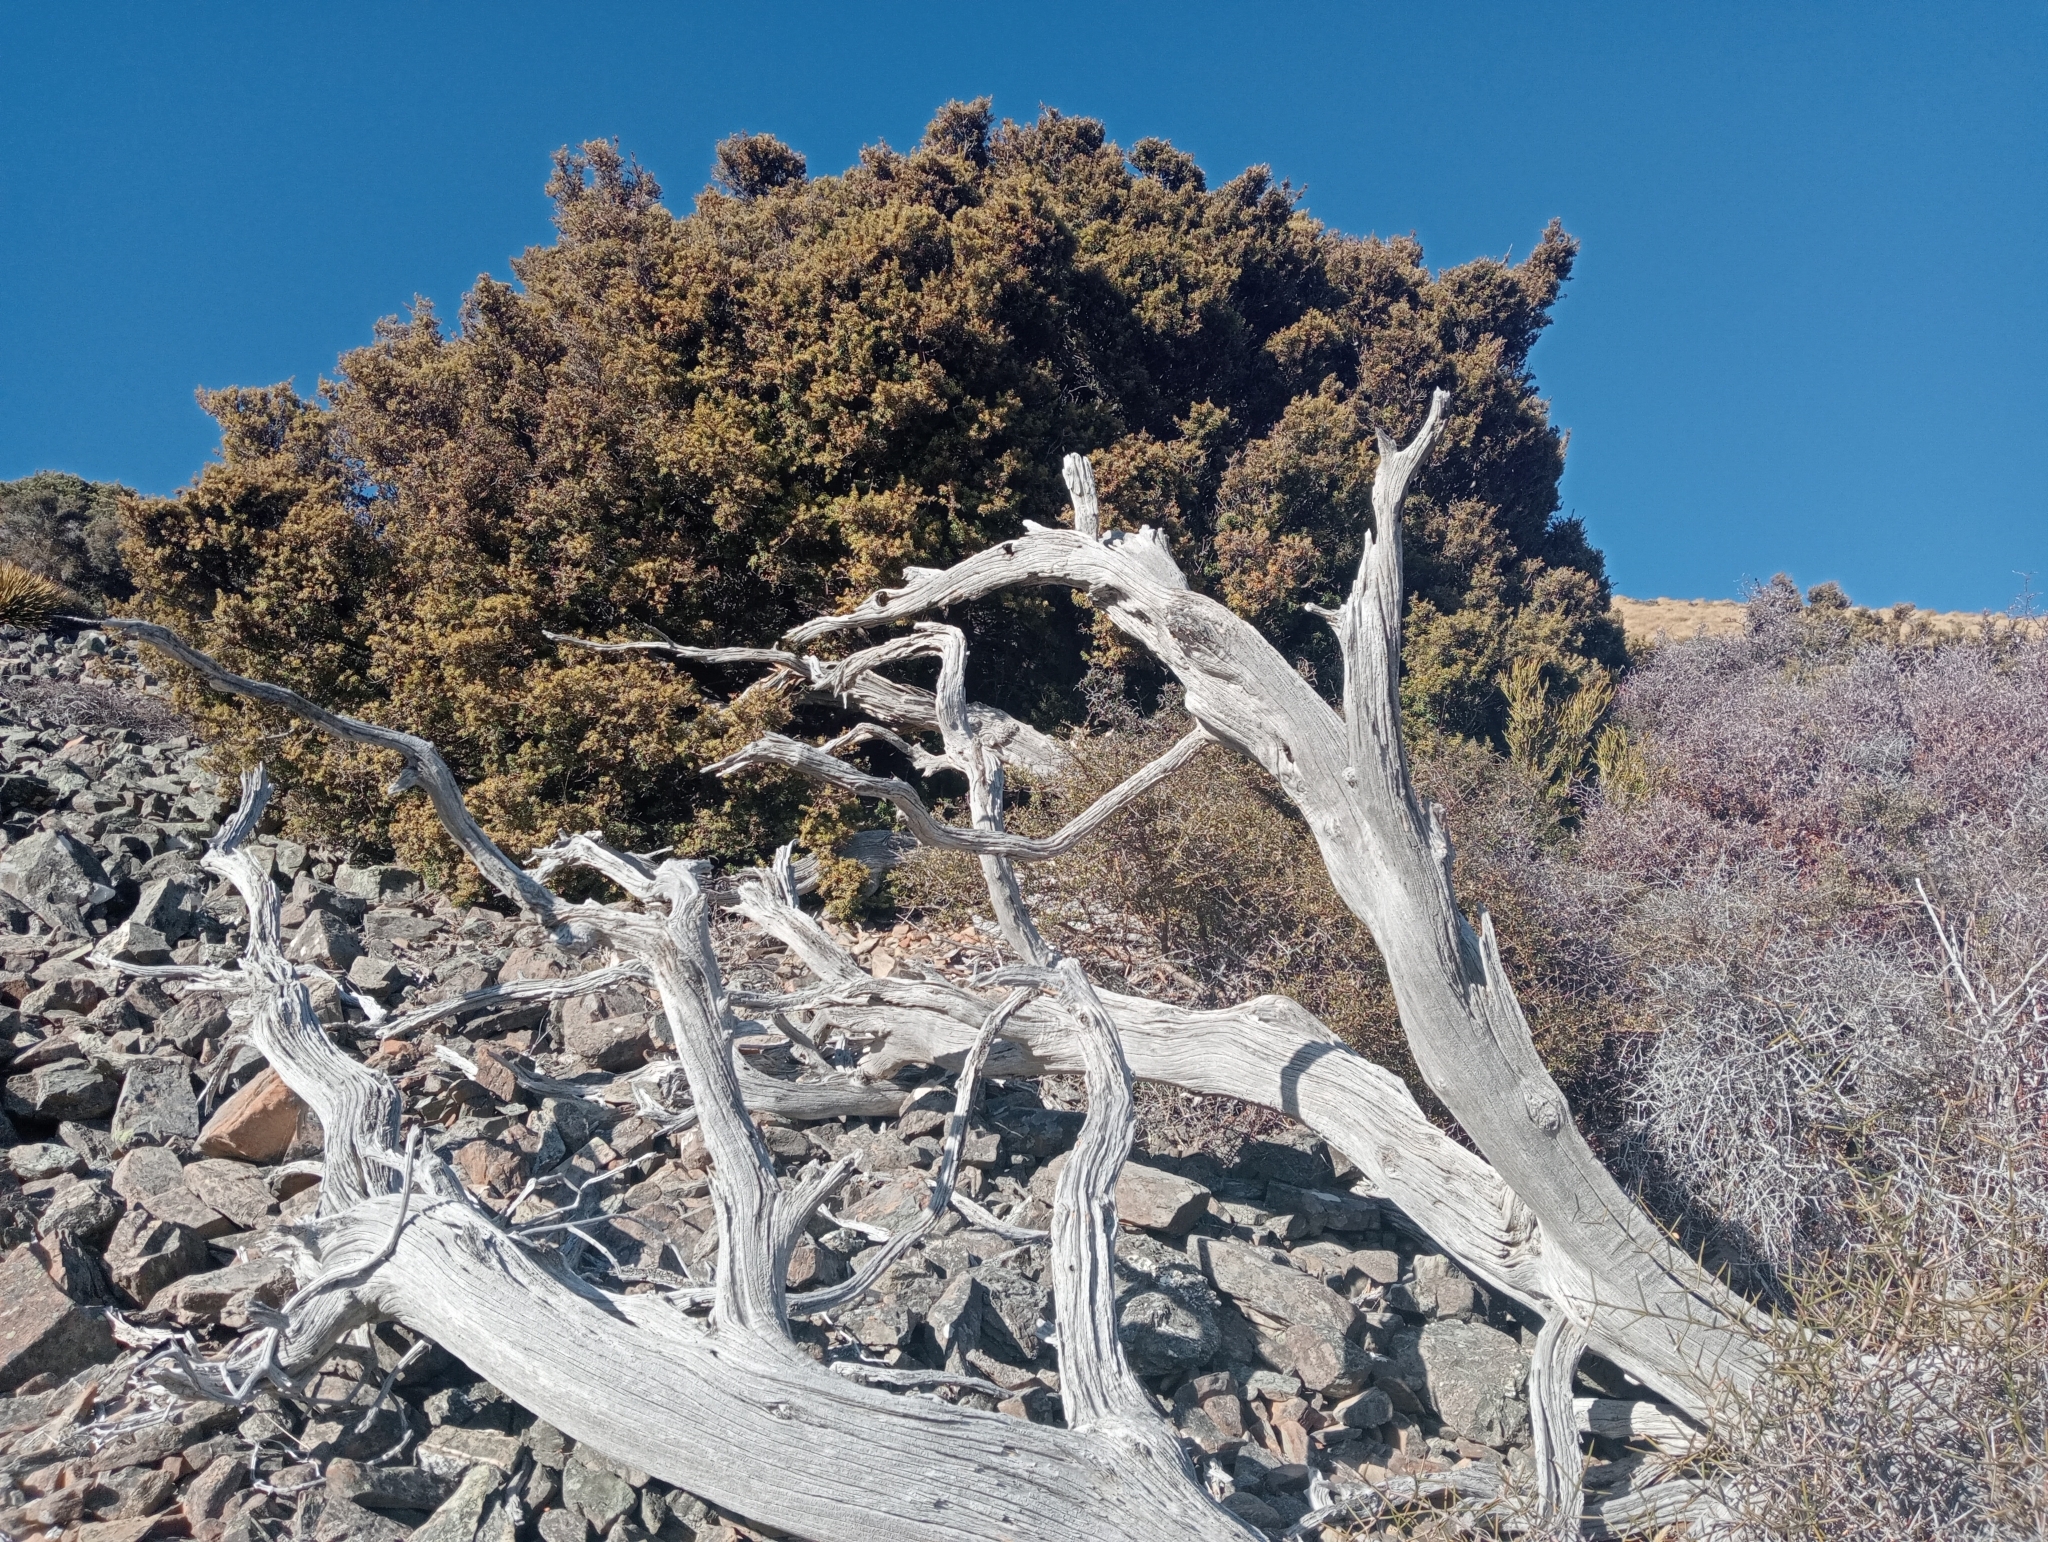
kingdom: Plantae
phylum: Tracheophyta
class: Pinopsida
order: Pinales
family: Podocarpaceae
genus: Podocarpus
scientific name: Podocarpus laetus
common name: Hall's totara
